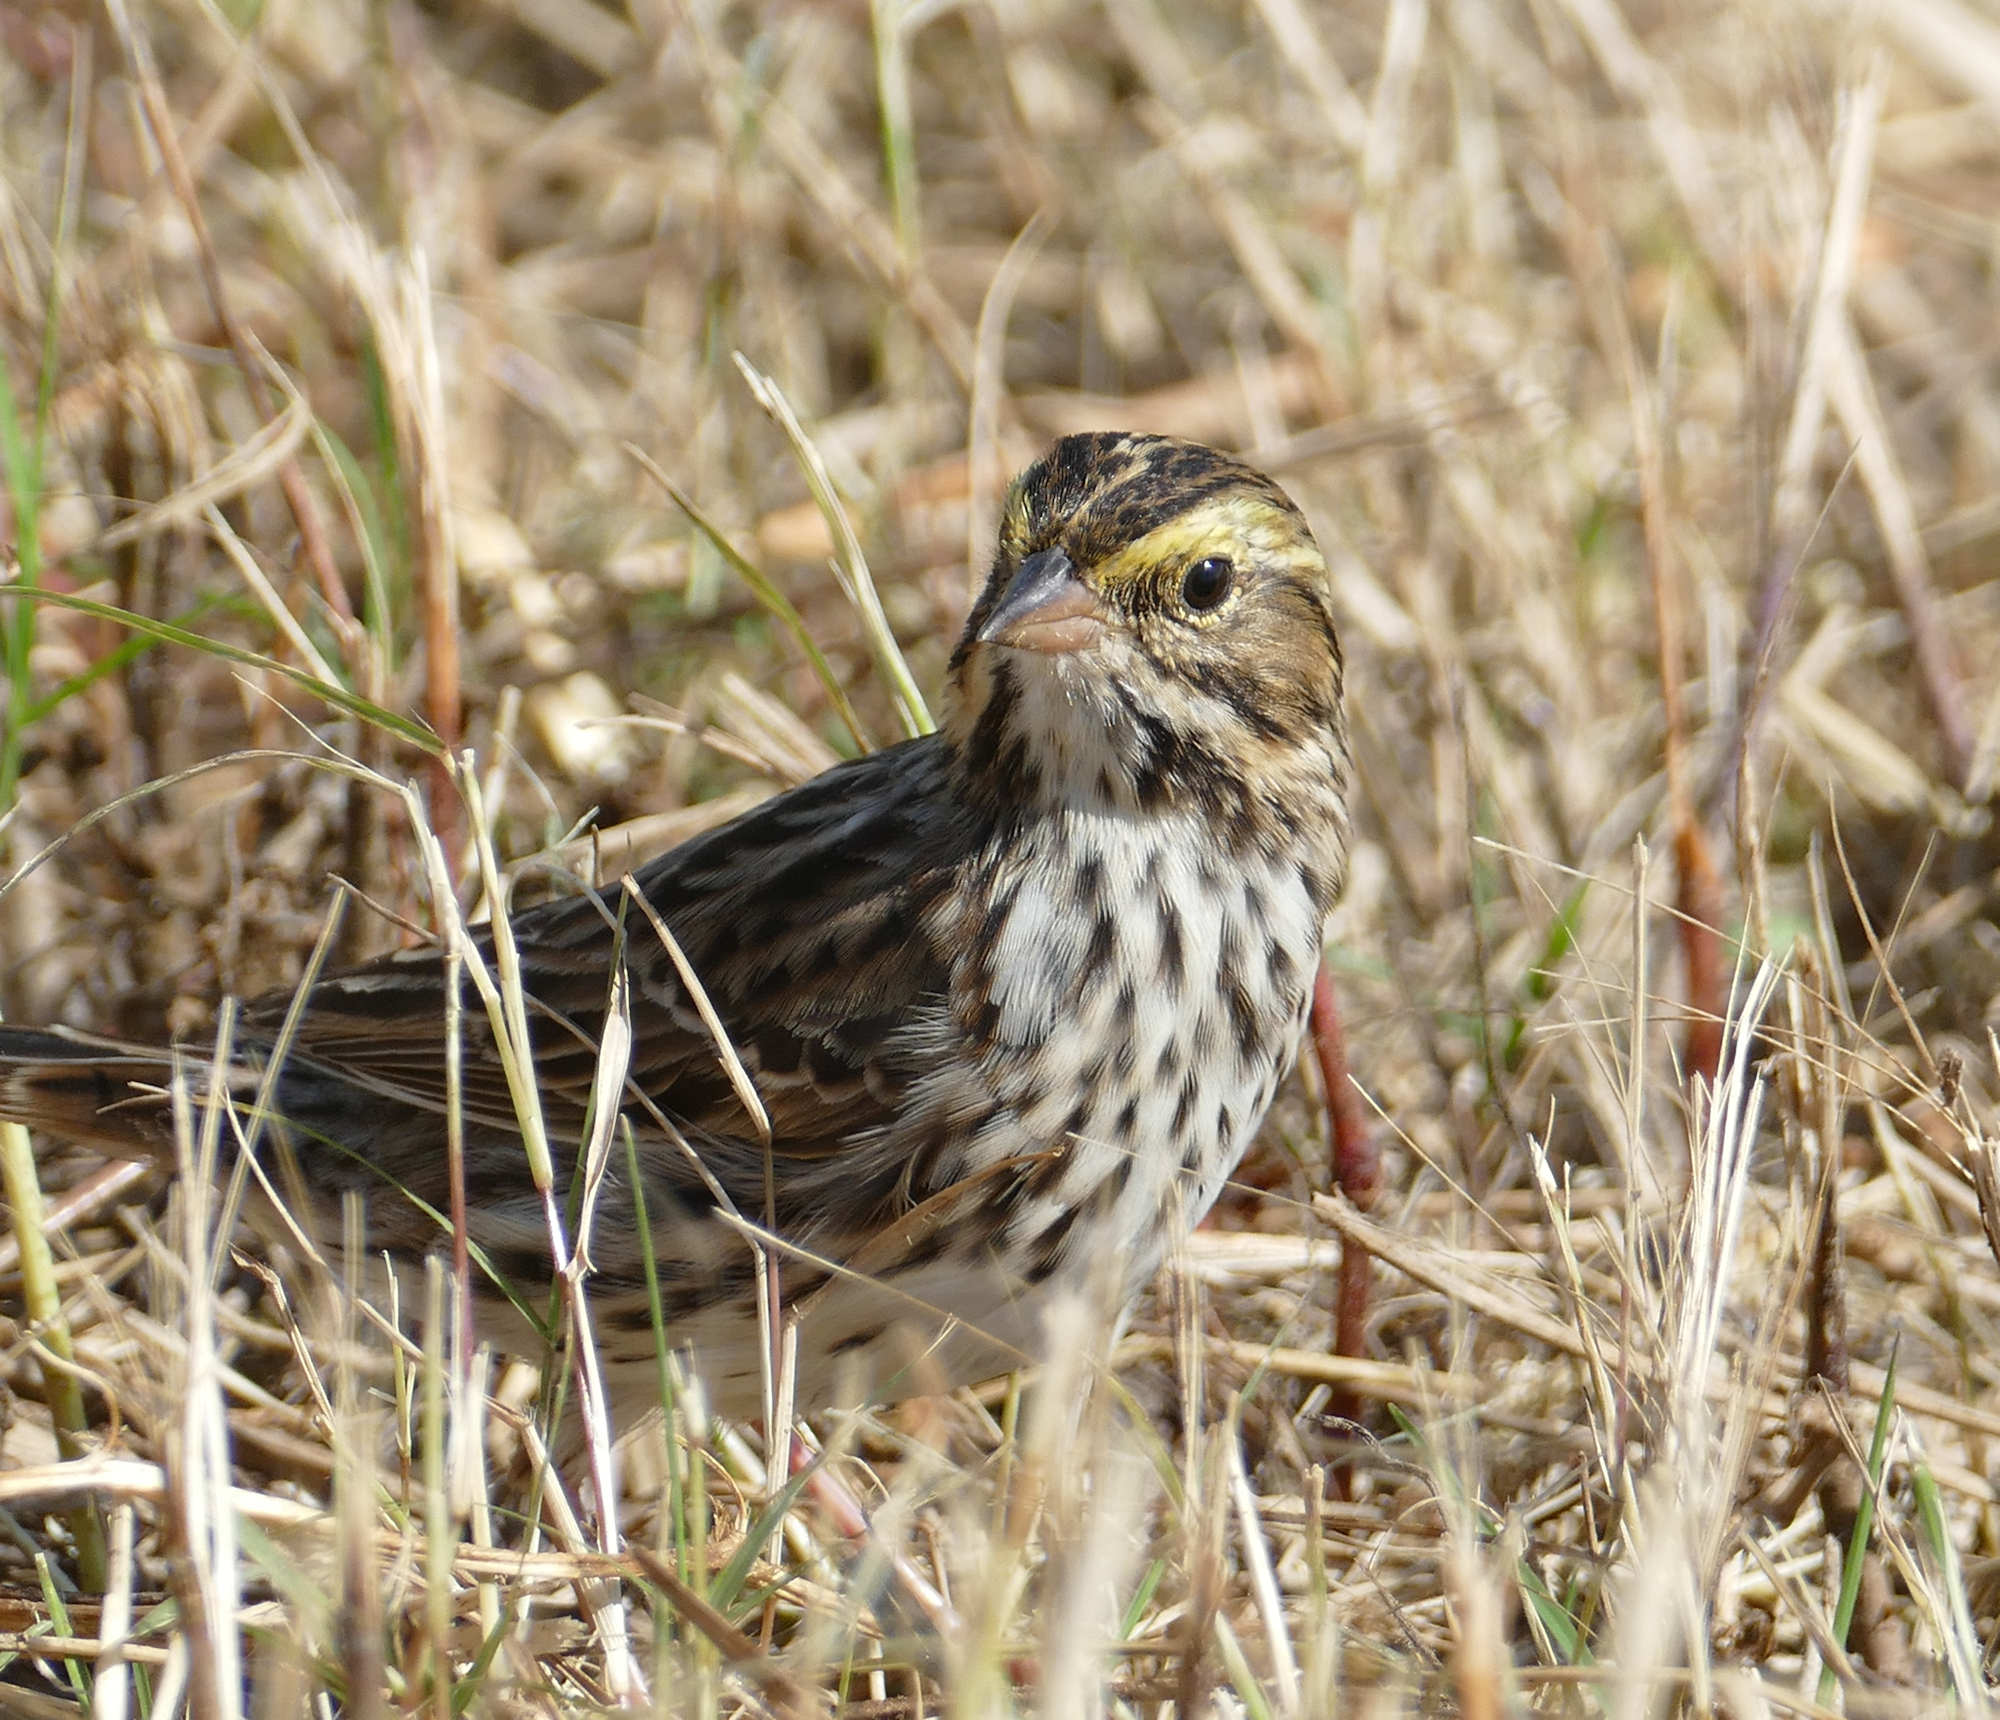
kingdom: Animalia
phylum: Chordata
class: Aves
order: Passeriformes
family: Passerellidae
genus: Passerculus
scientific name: Passerculus sandwichensis
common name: Savannah sparrow
